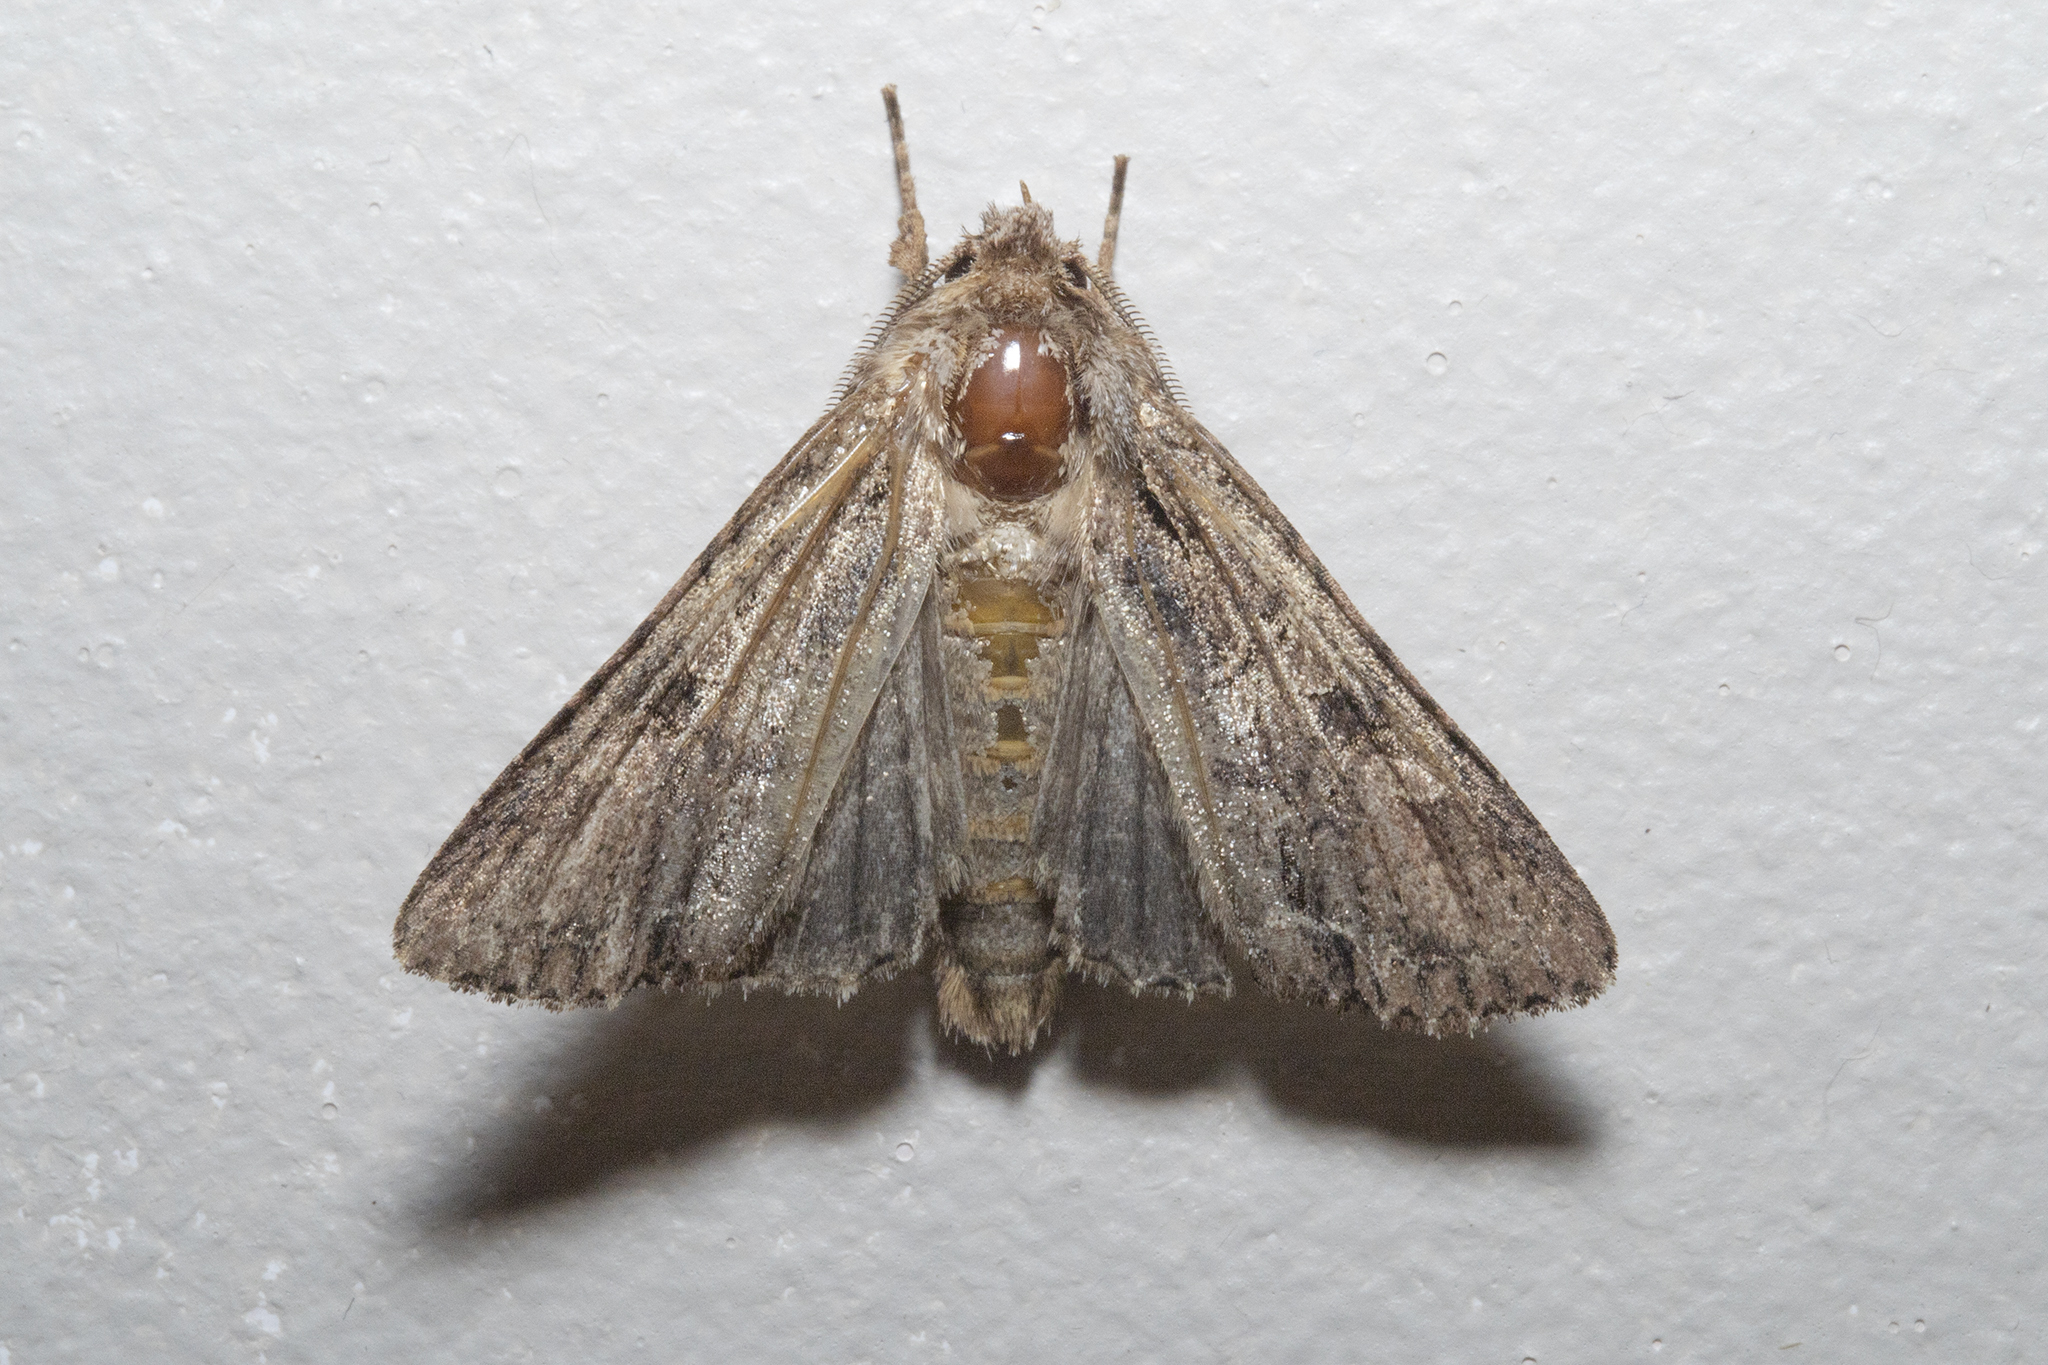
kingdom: Animalia
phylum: Arthropoda
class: Insecta
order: Lepidoptera
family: Noctuidae
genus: Ichneutica
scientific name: Ichneutica mutans
